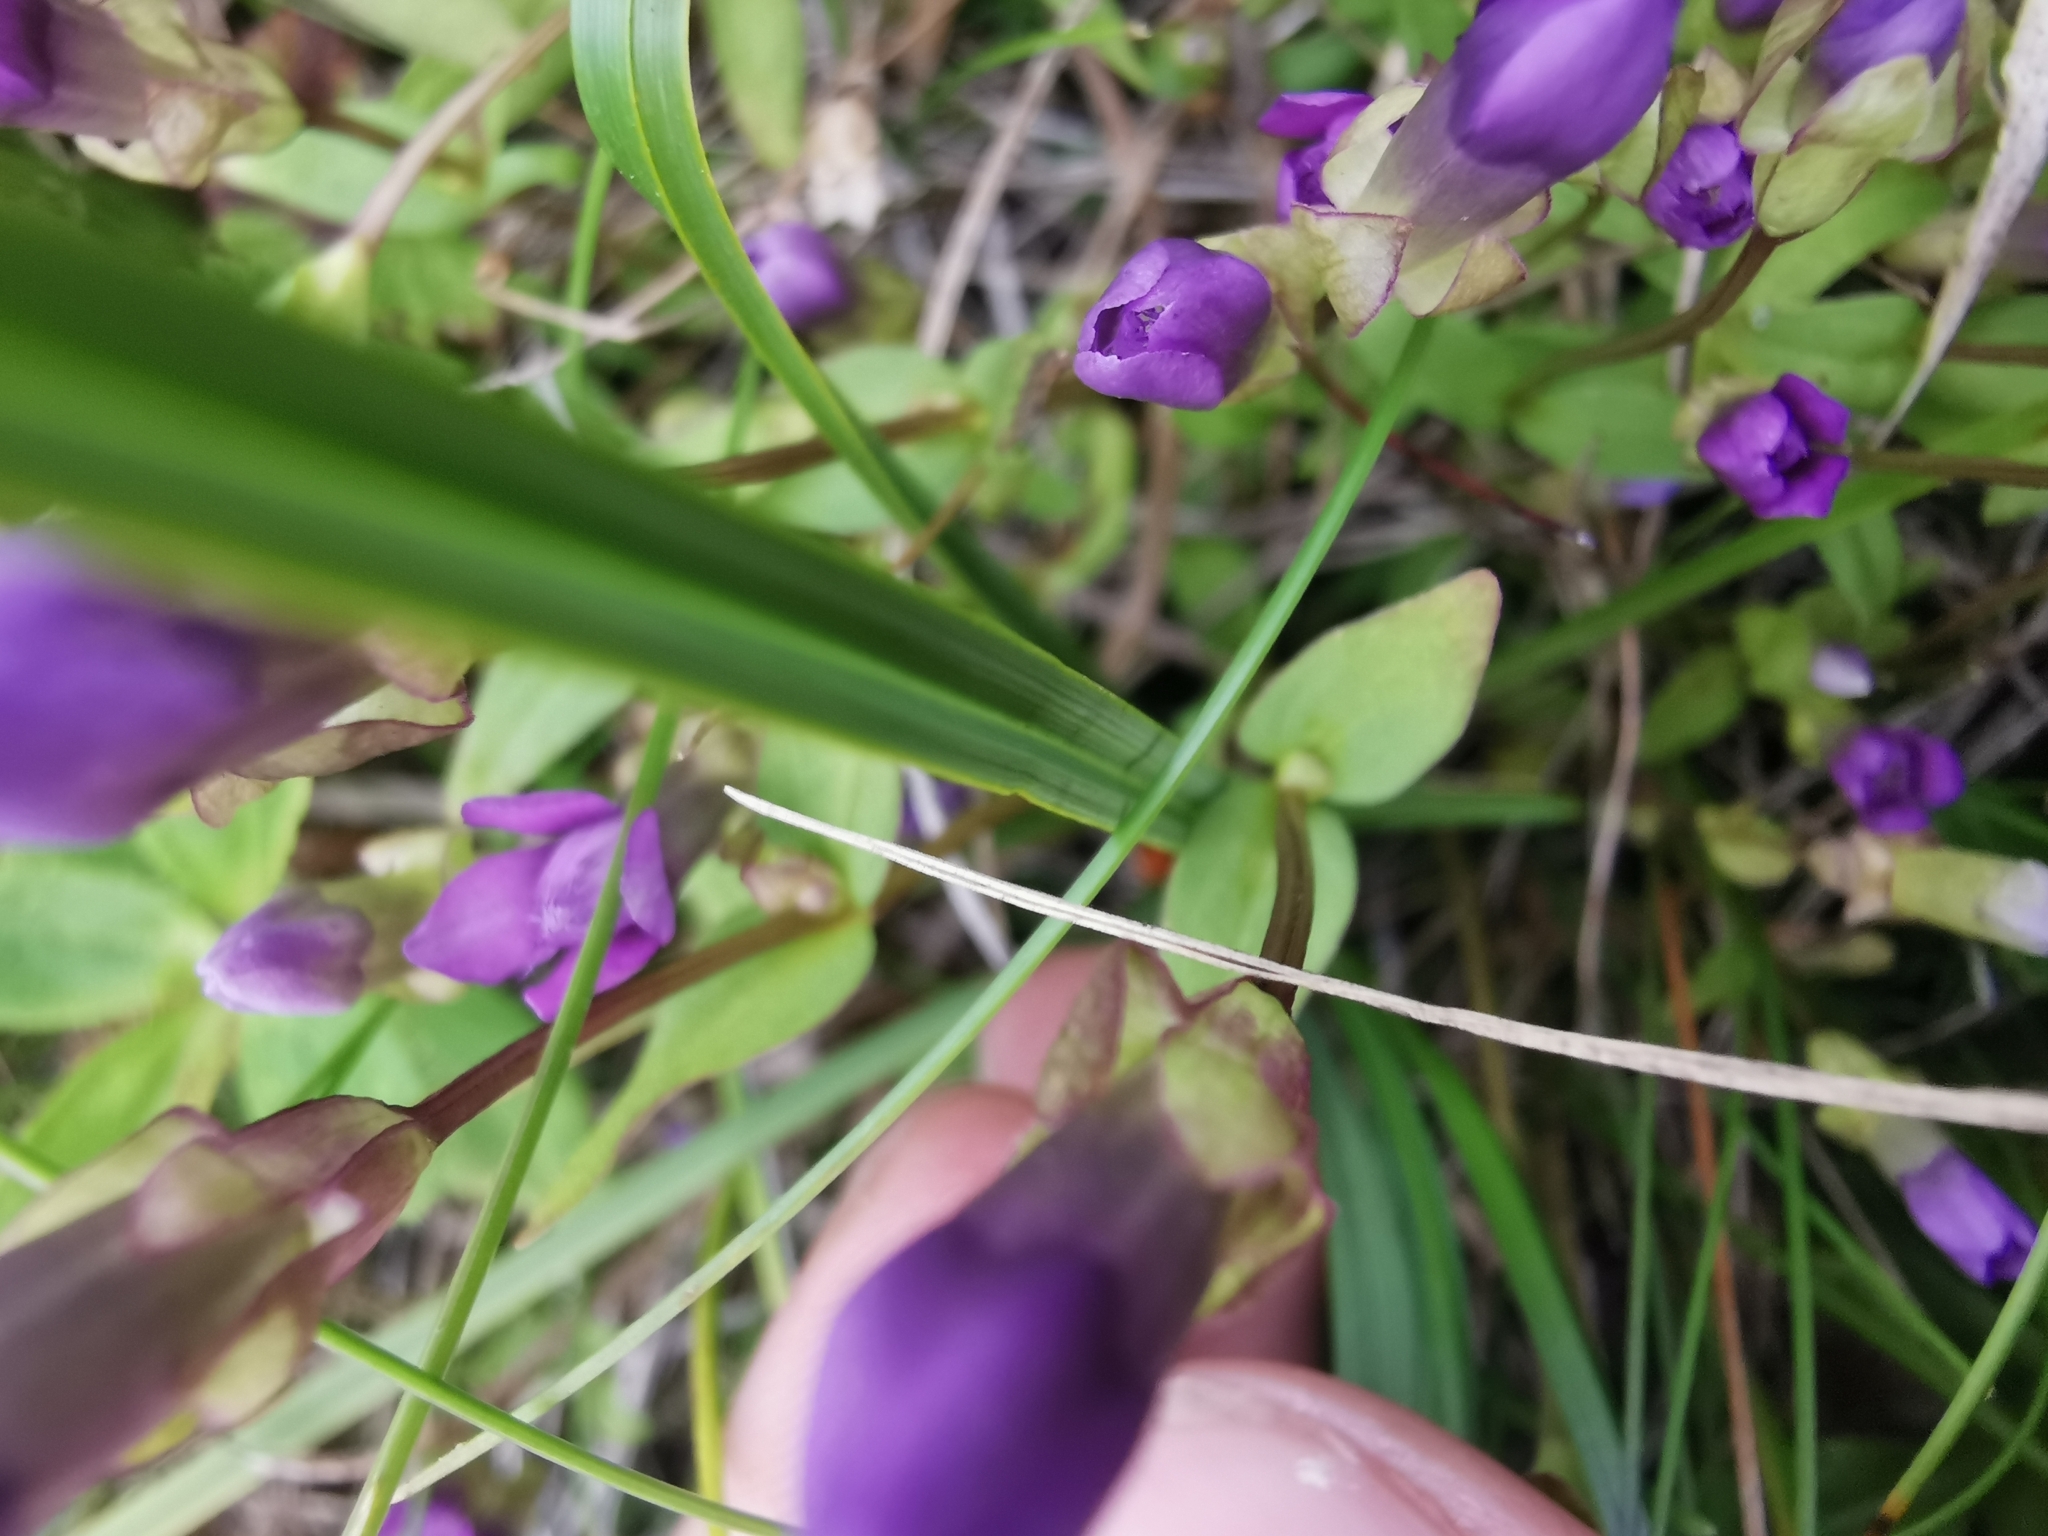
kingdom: Plantae
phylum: Tracheophyta
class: Magnoliopsida
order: Gentianales
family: Gentianaceae
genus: Gentianella
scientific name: Gentianella auriculata
